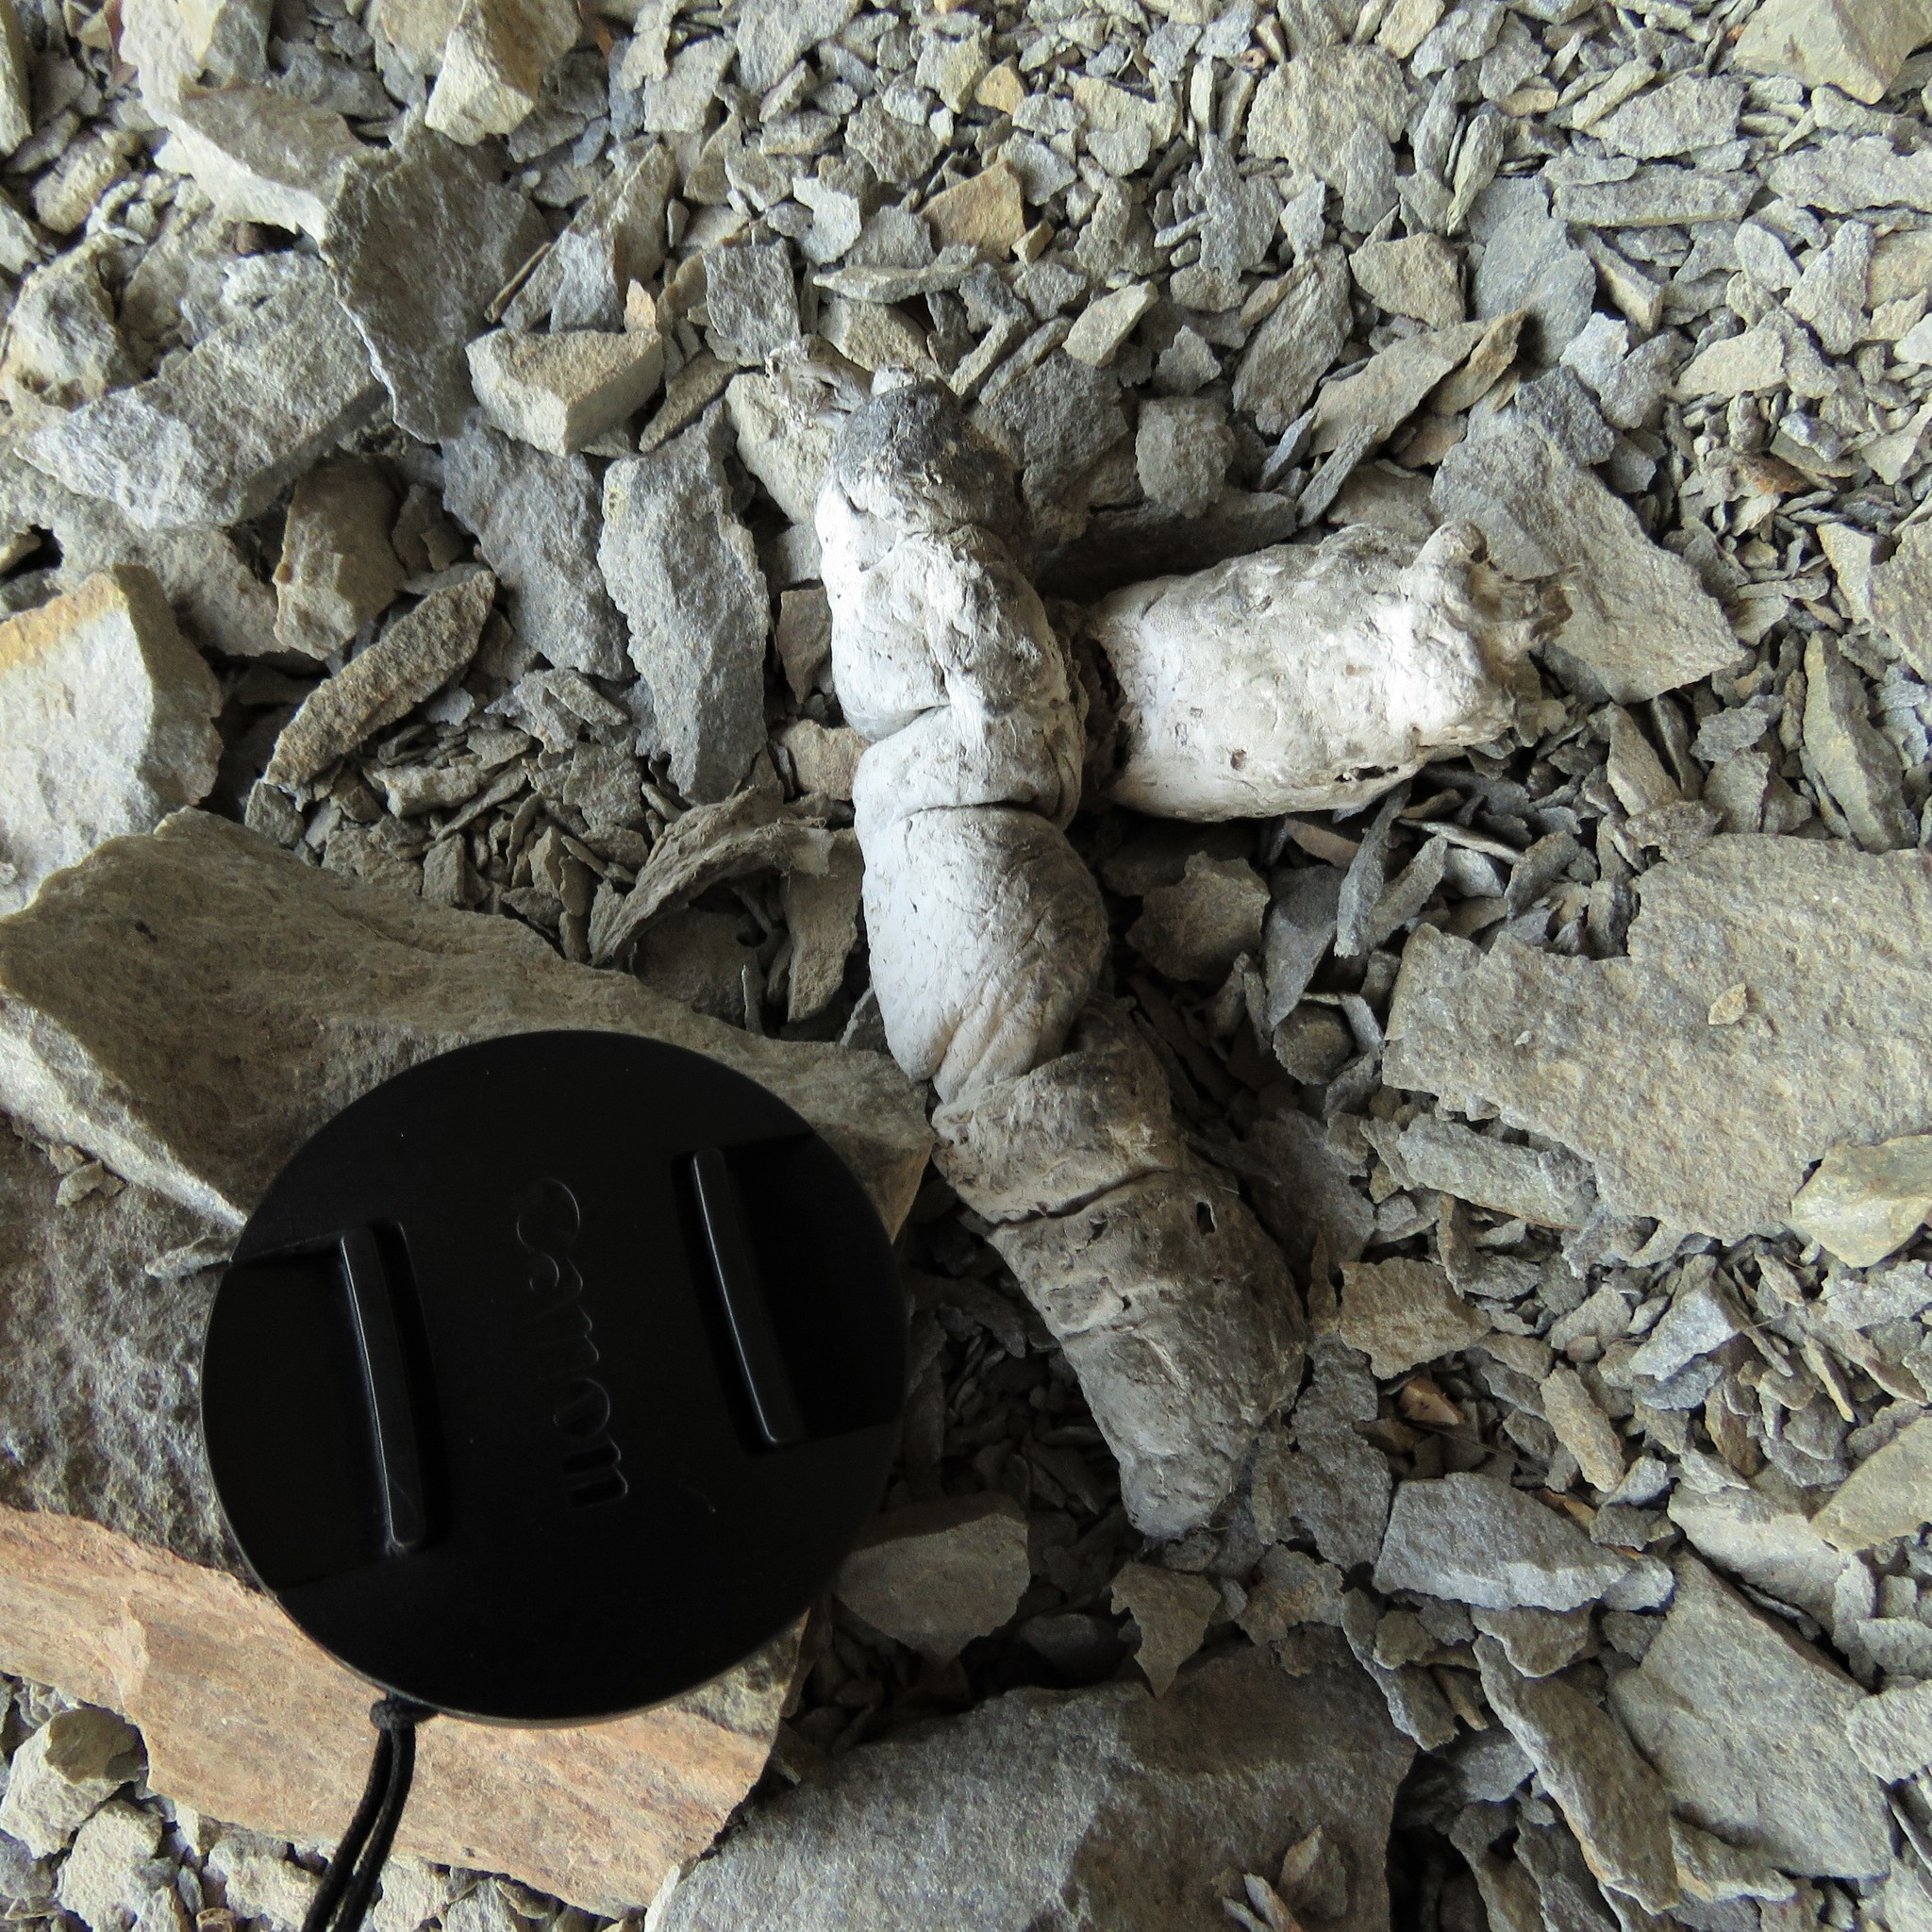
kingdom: Animalia
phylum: Chordata
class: Mammalia
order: Carnivora
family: Felidae
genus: Panthera
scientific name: Panthera pardus
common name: Leopard
